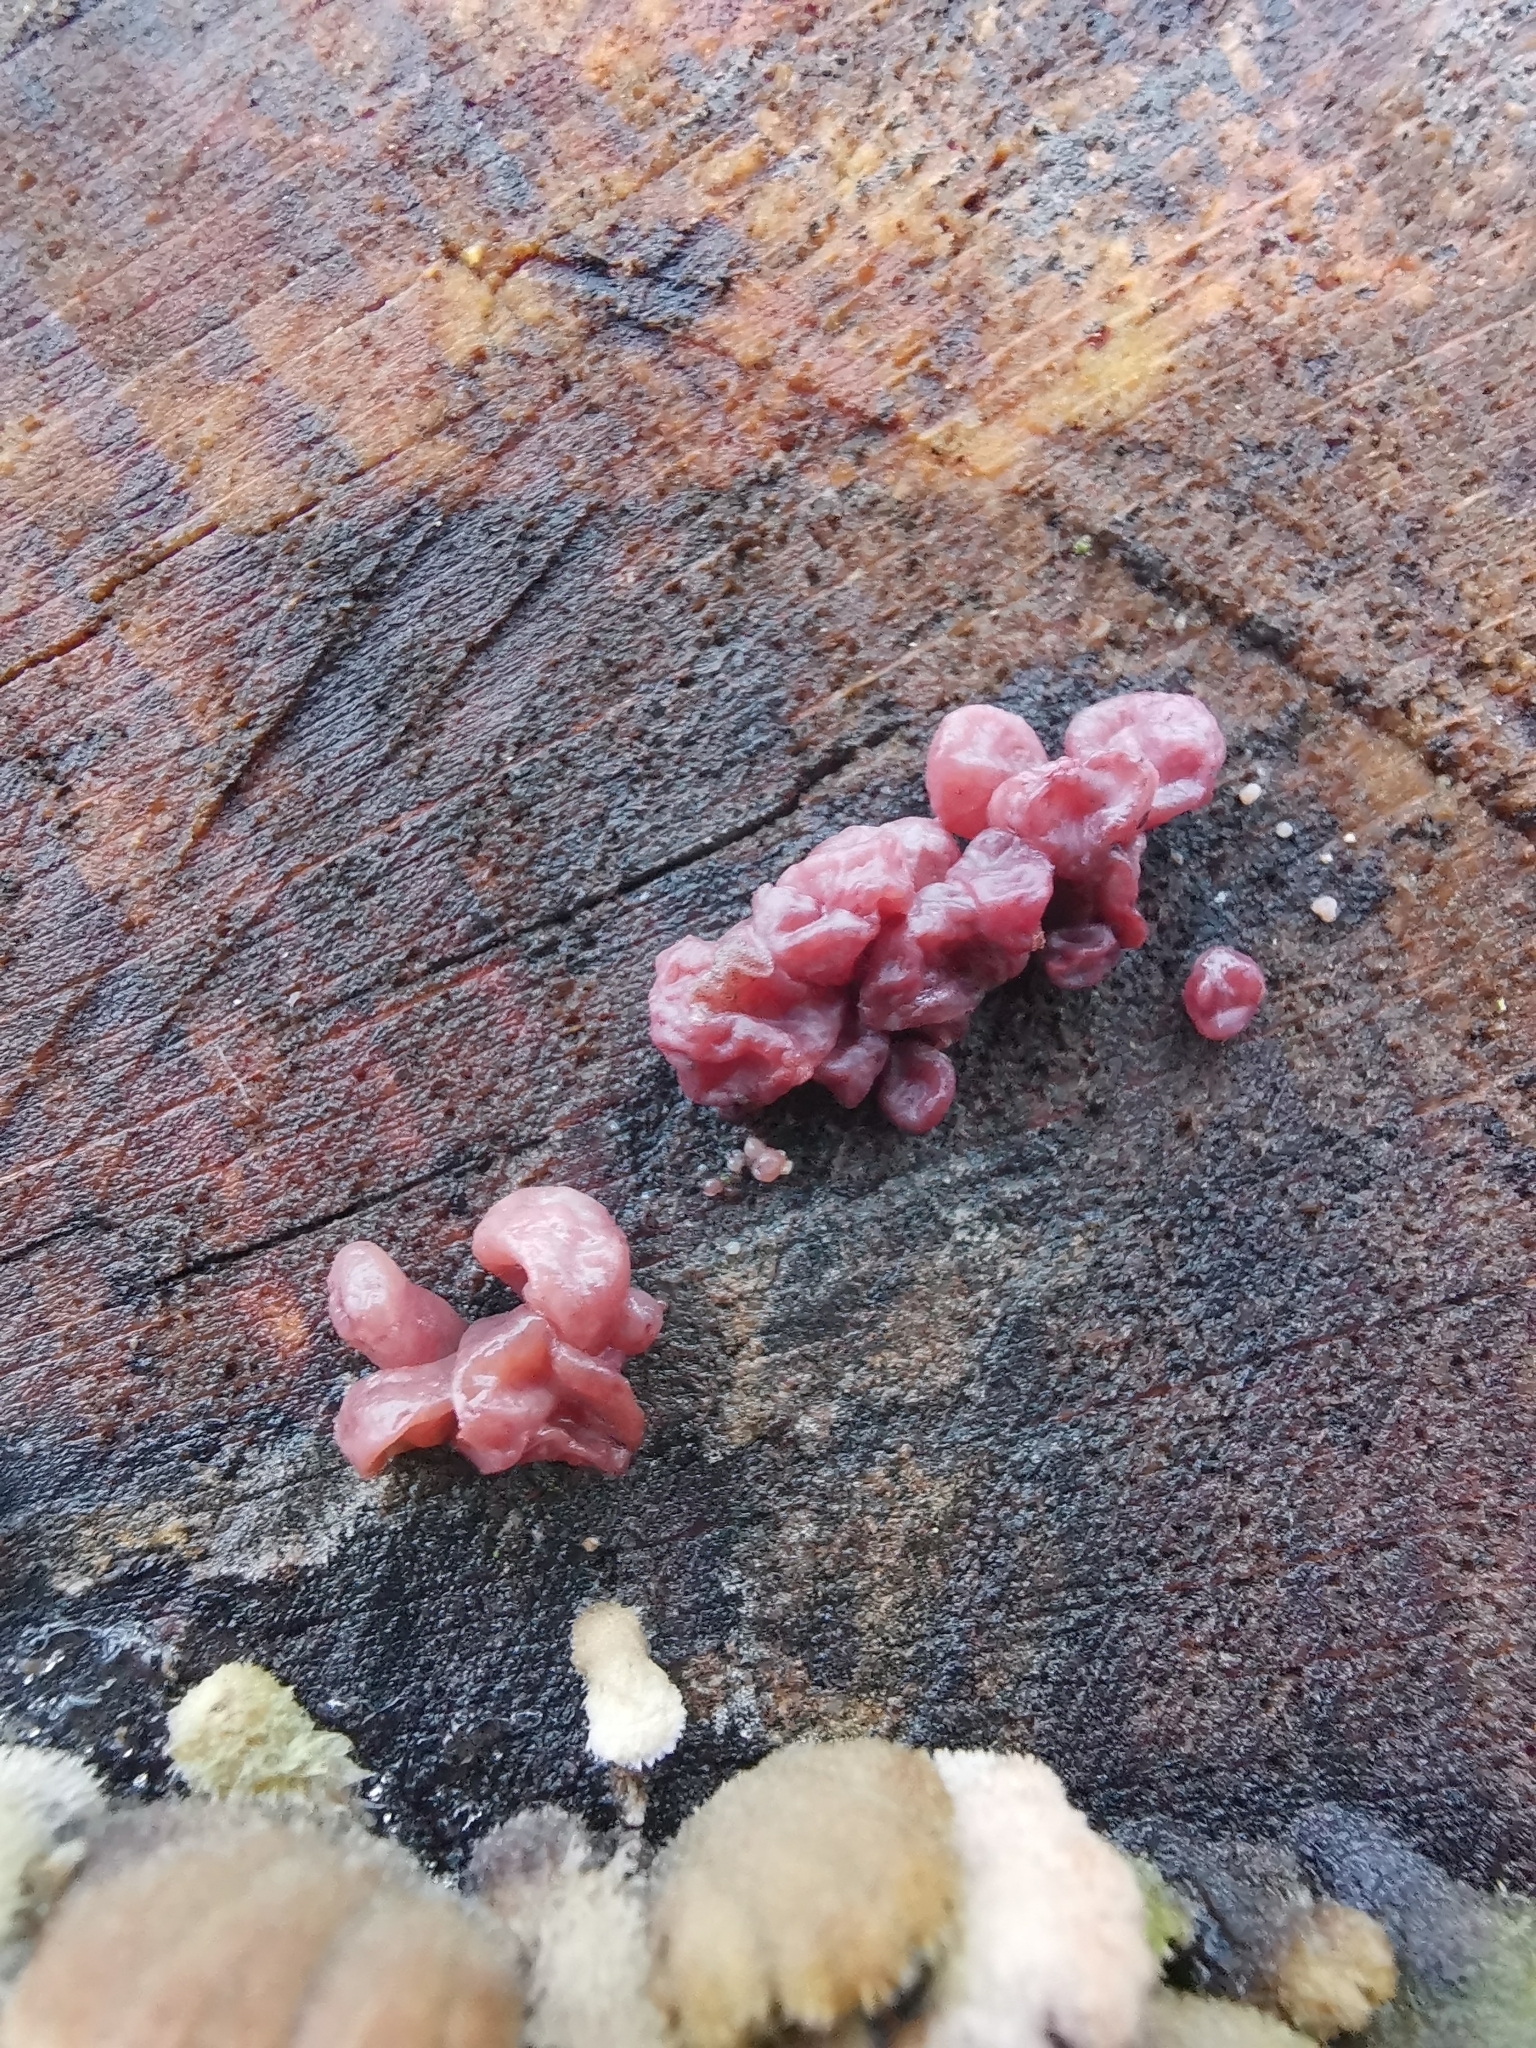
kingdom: Fungi
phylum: Ascomycota
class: Leotiomycetes
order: Helotiales
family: Gelatinodiscaceae
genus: Ascocoryne
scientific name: Ascocoryne sarcoides
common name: Purple jellydisc
